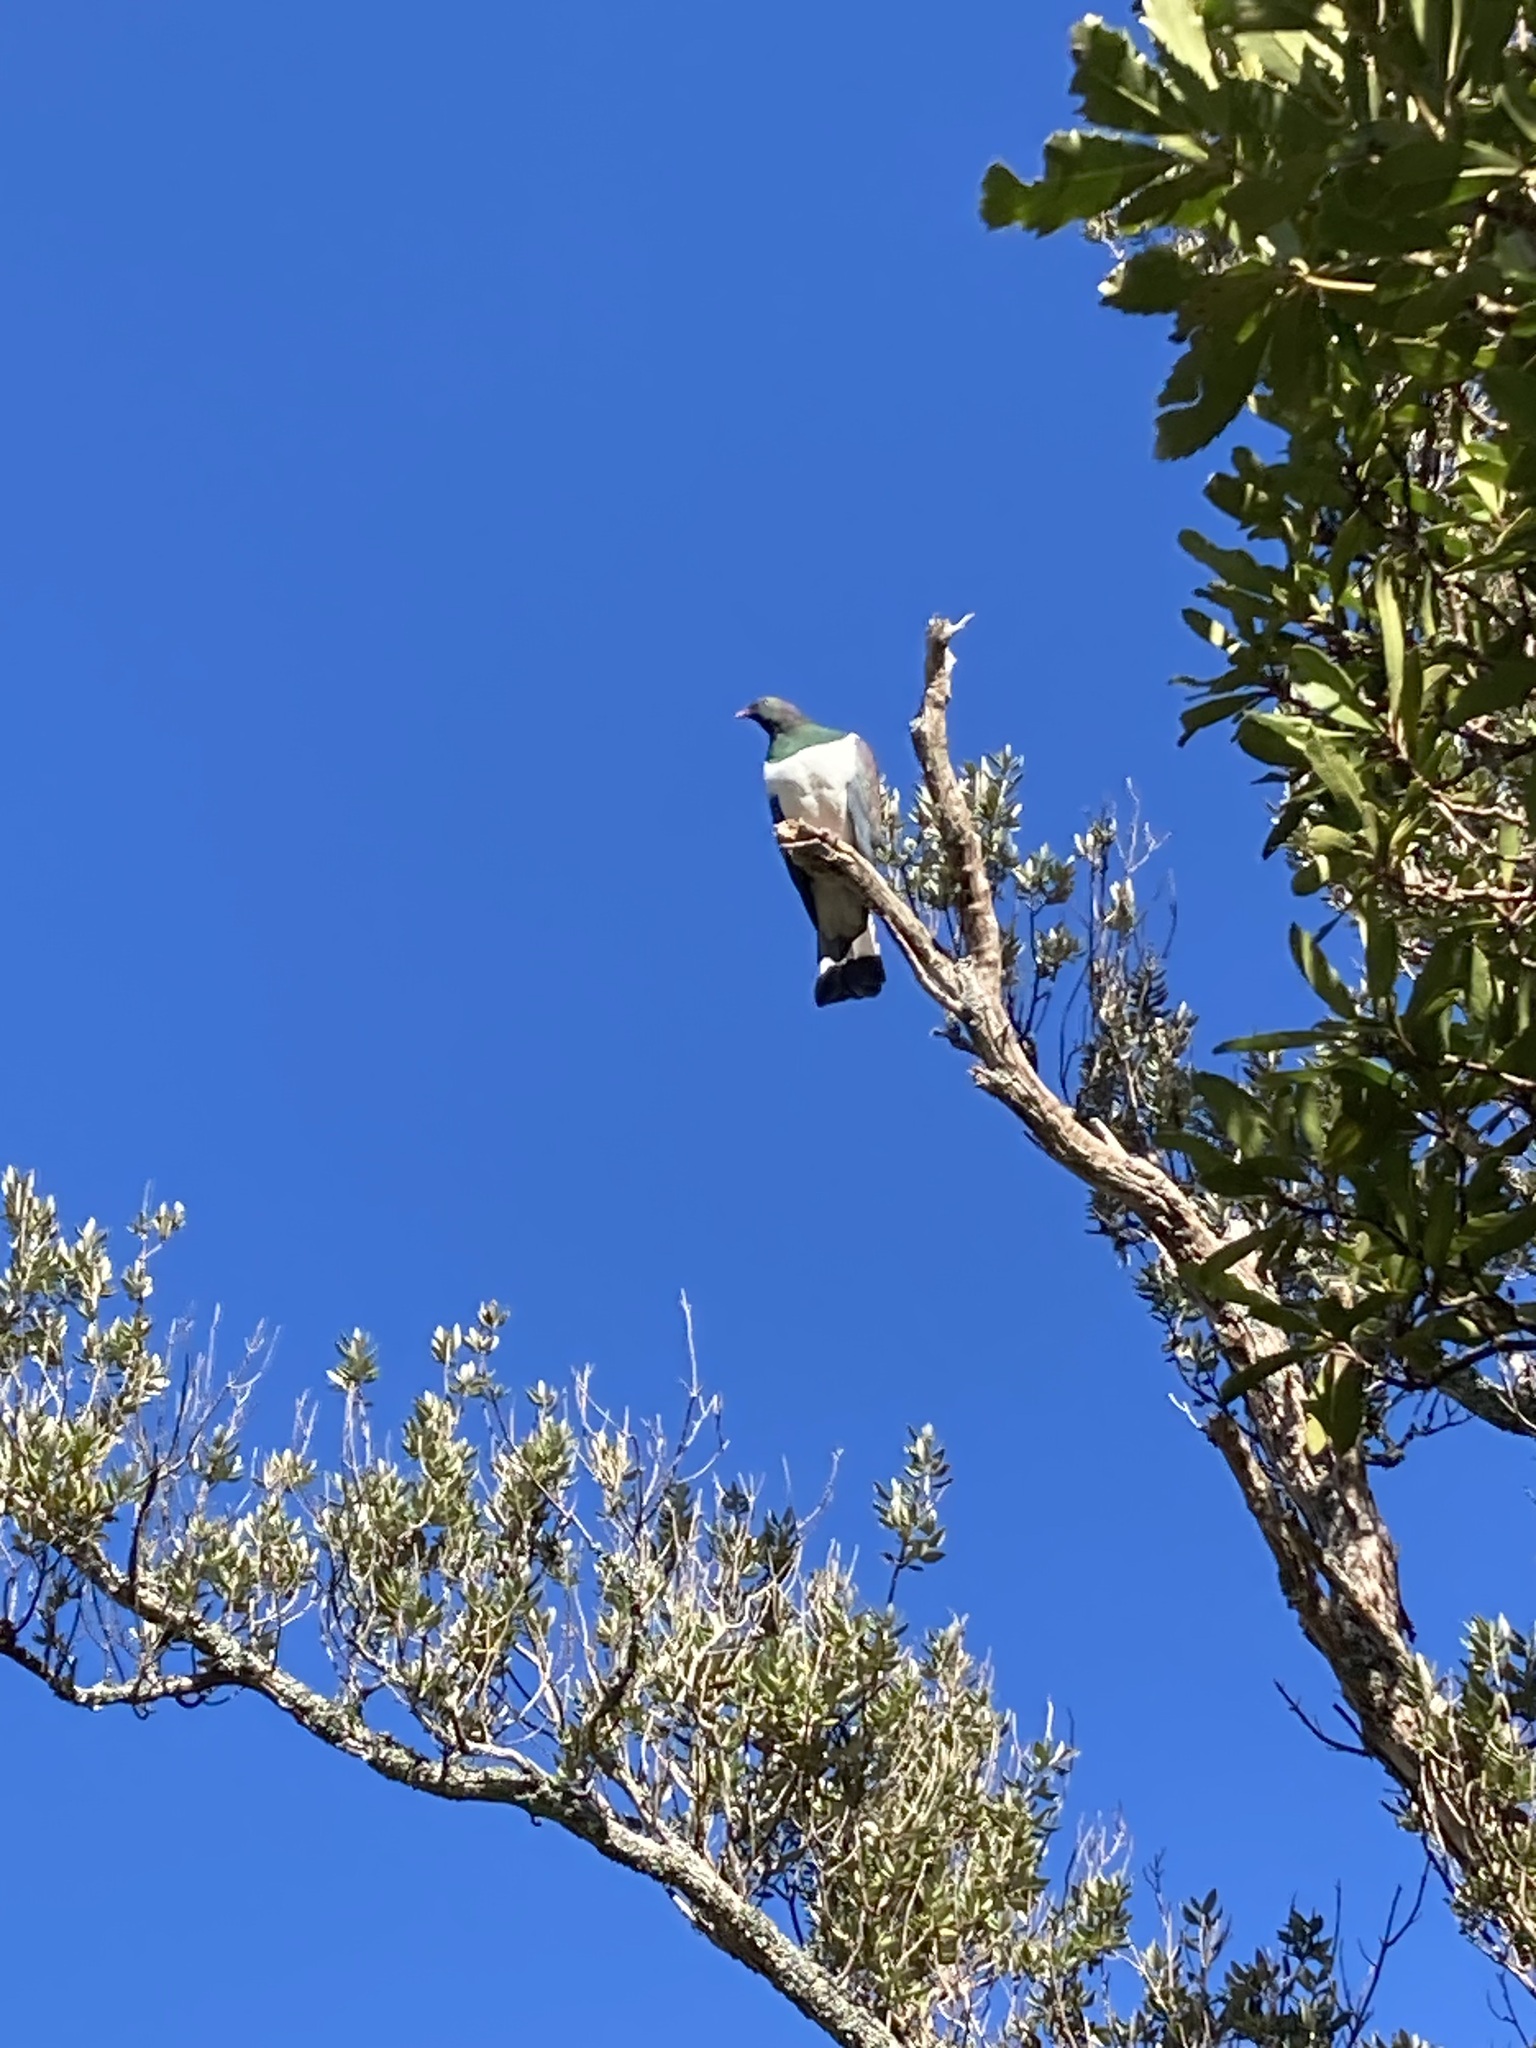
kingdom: Animalia
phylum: Chordata
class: Aves
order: Columbiformes
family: Columbidae
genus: Hemiphaga
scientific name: Hemiphaga novaeseelandiae
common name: New zealand pigeon
